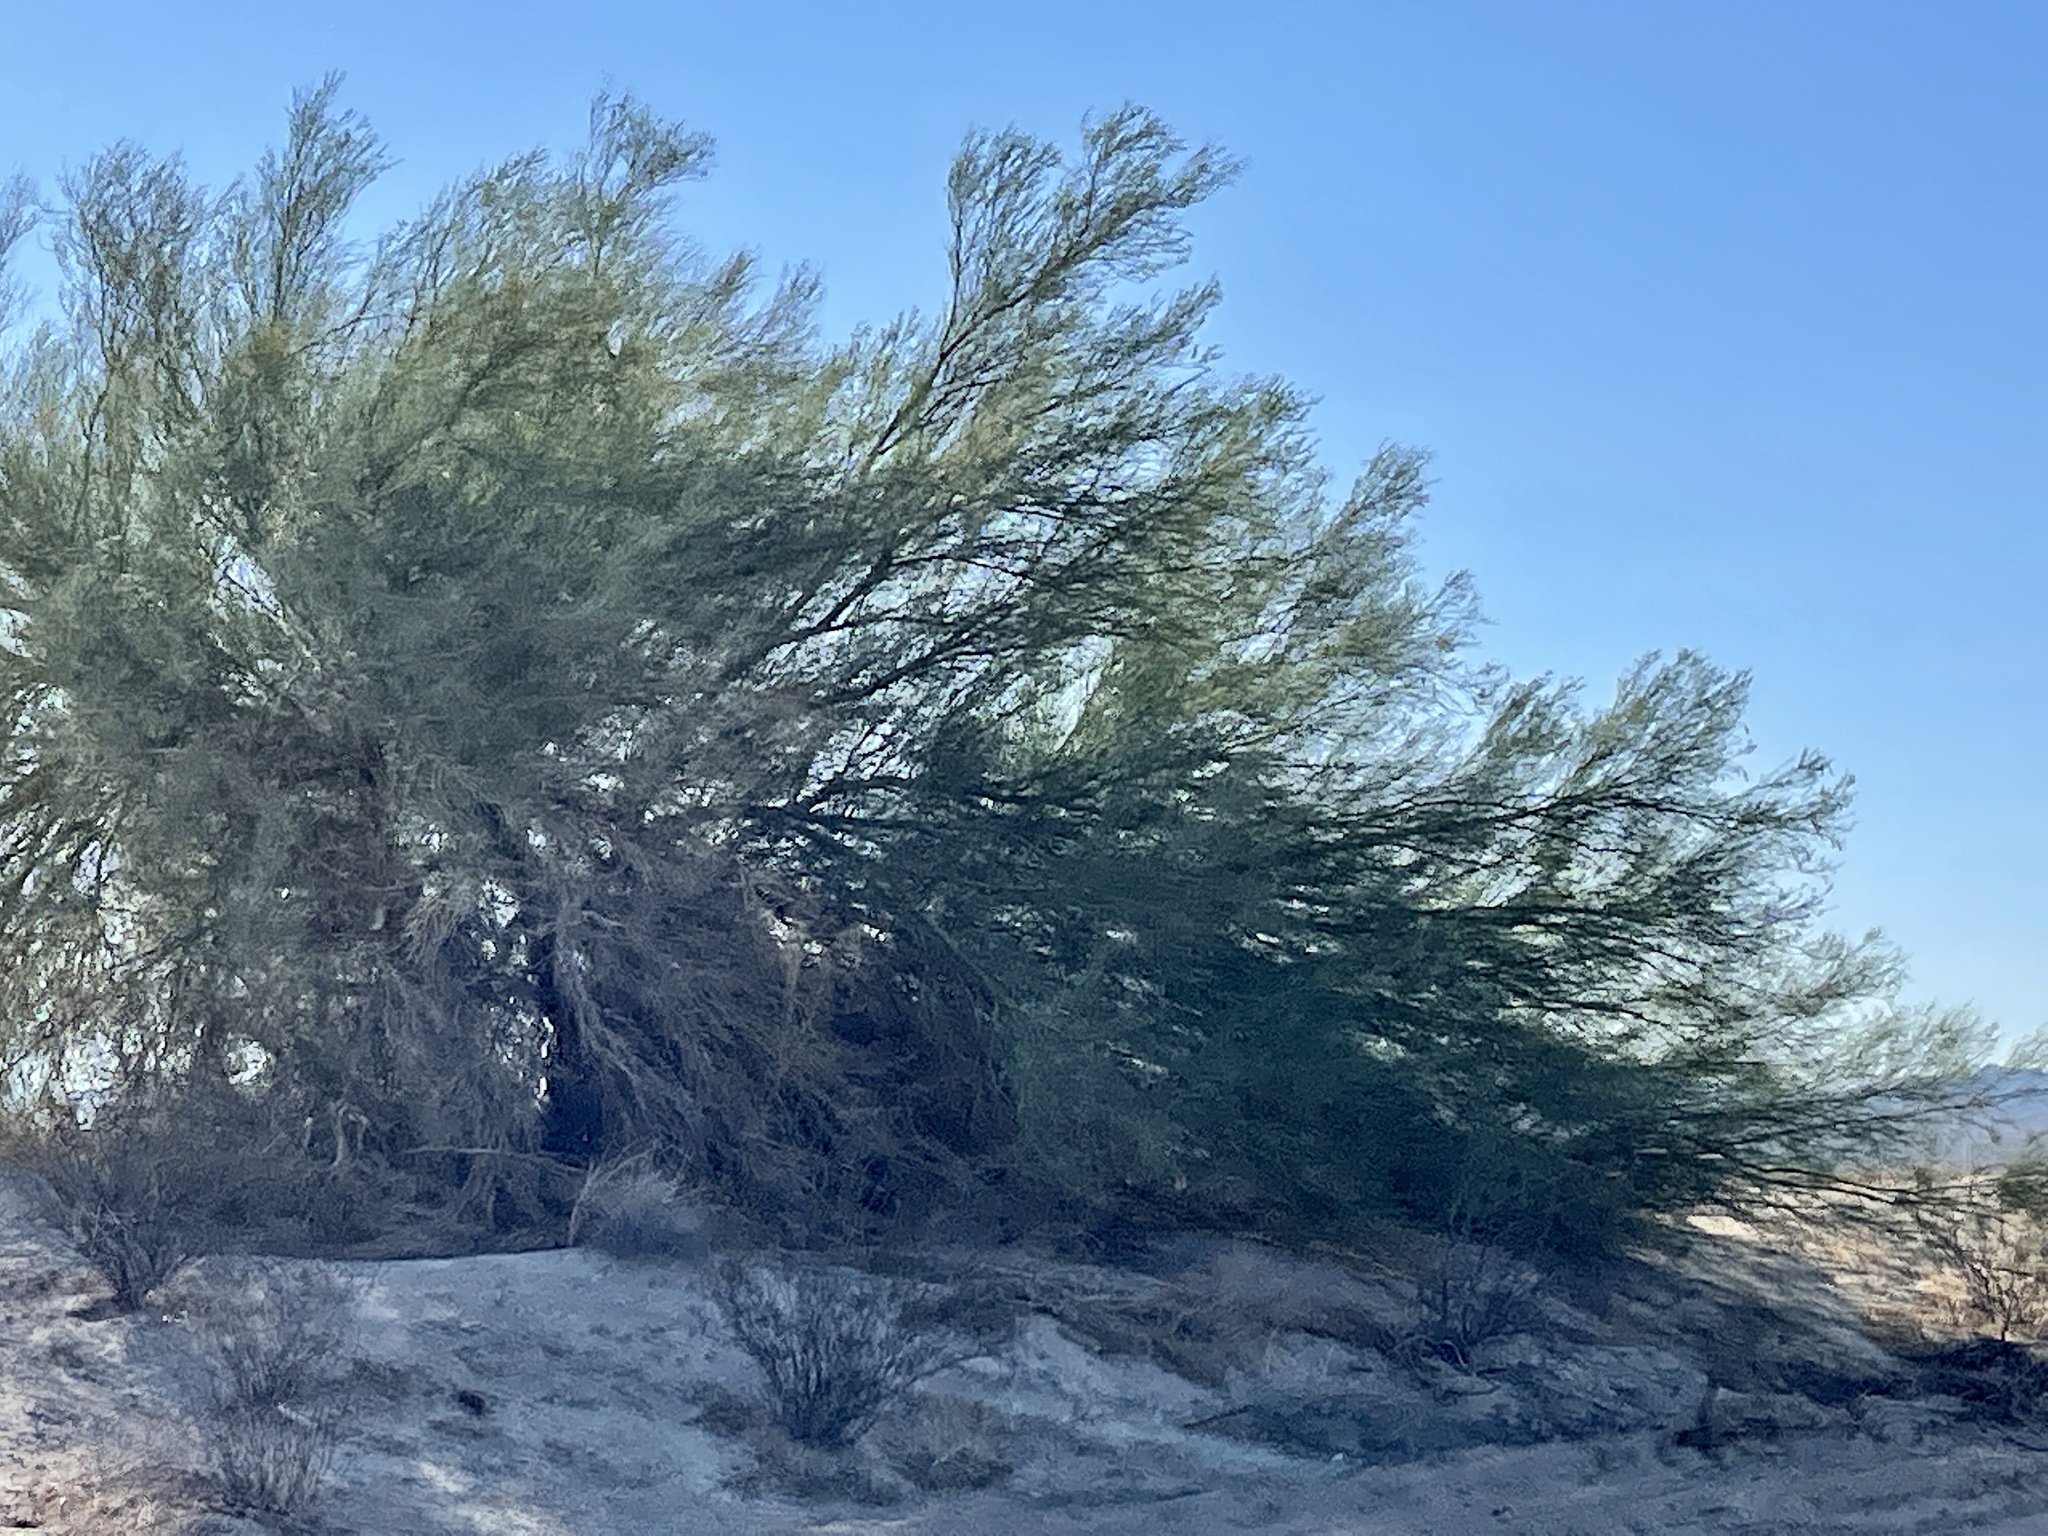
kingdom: Plantae
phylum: Tracheophyta
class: Magnoliopsida
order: Fabales
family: Fabaceae
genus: Parkinsonia
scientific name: Parkinsonia florida
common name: Blue paloverde
